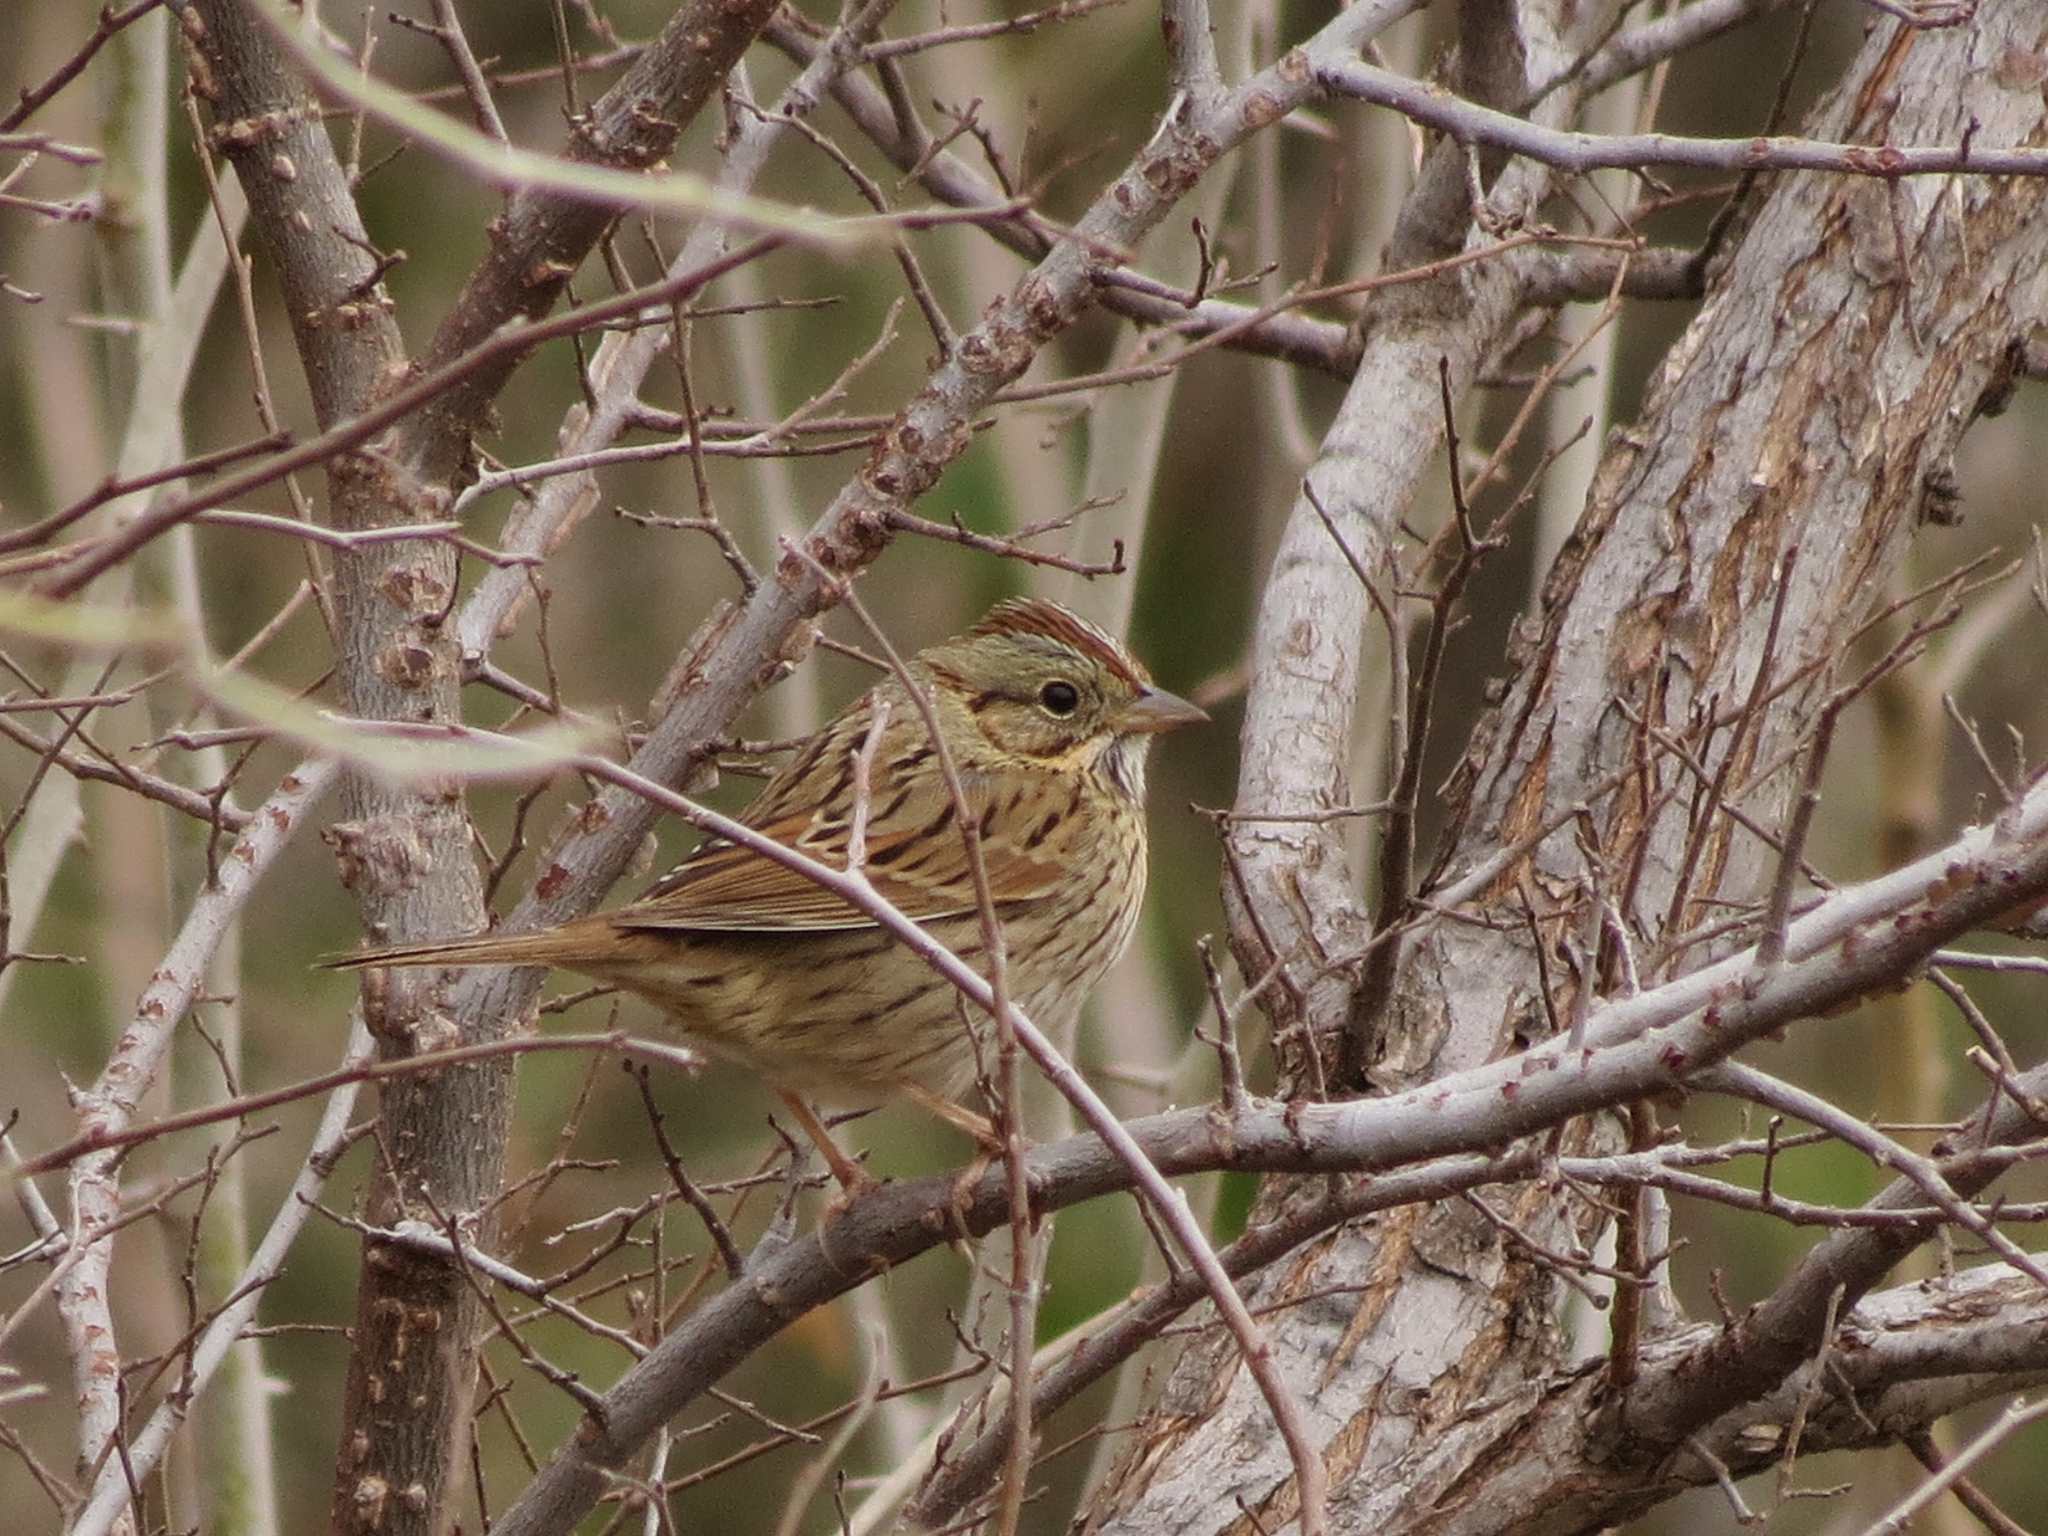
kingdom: Animalia
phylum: Chordata
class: Aves
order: Passeriformes
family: Passerellidae
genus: Melospiza
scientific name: Melospiza lincolnii
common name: Lincoln's sparrow
